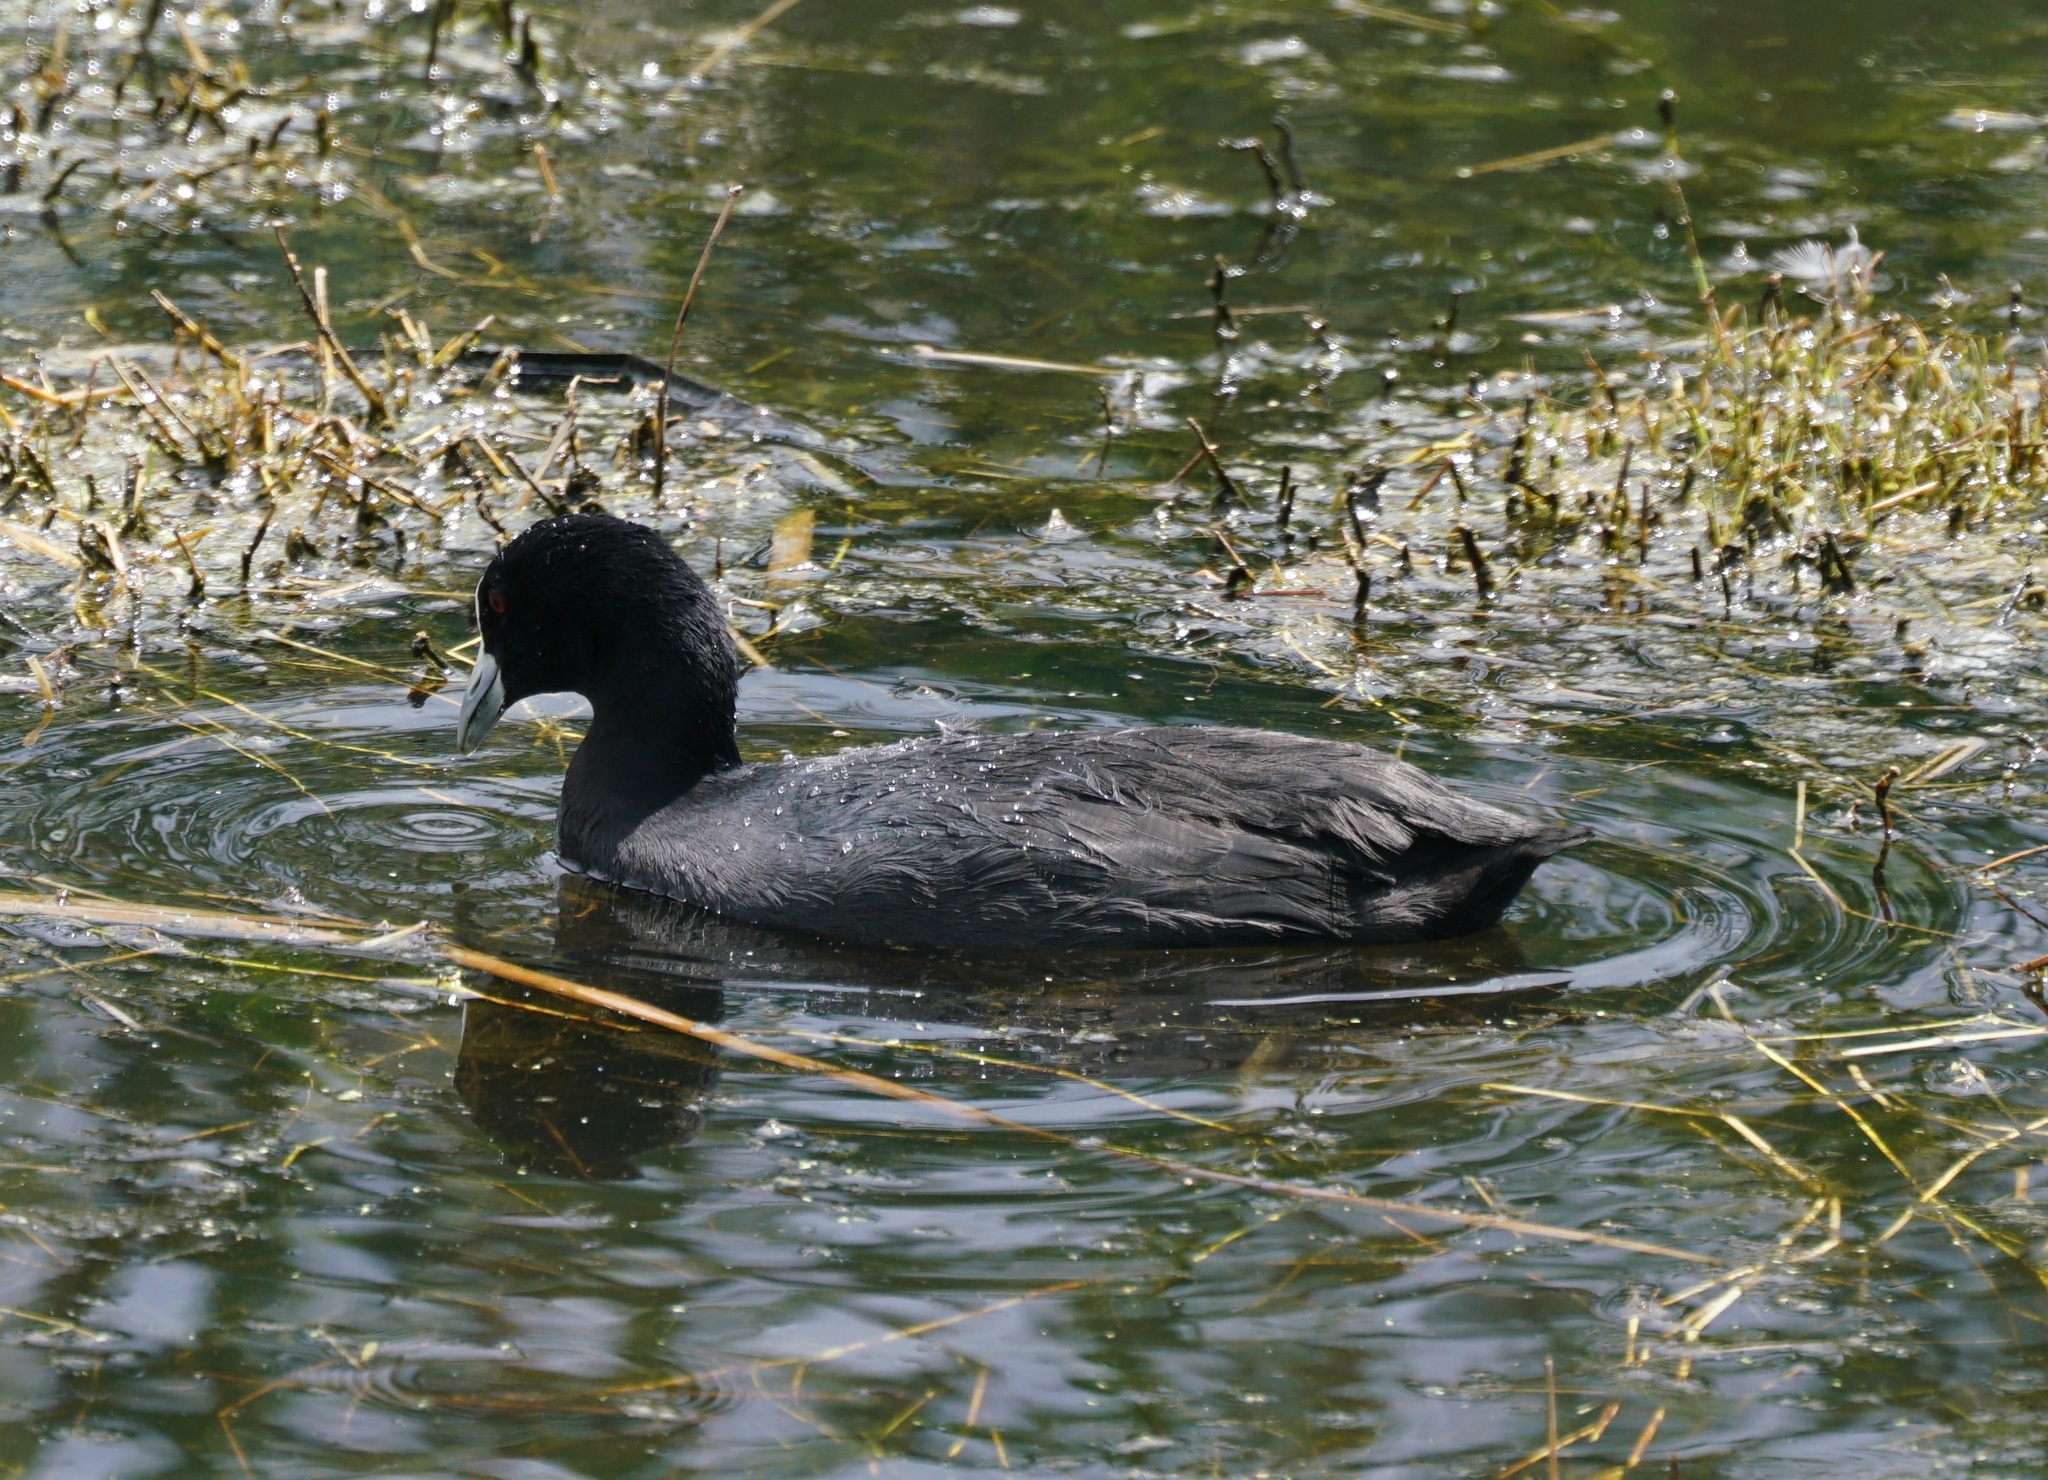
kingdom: Animalia
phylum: Chordata
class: Aves
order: Gruiformes
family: Rallidae
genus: Fulica
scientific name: Fulica atra
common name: Eurasian coot
